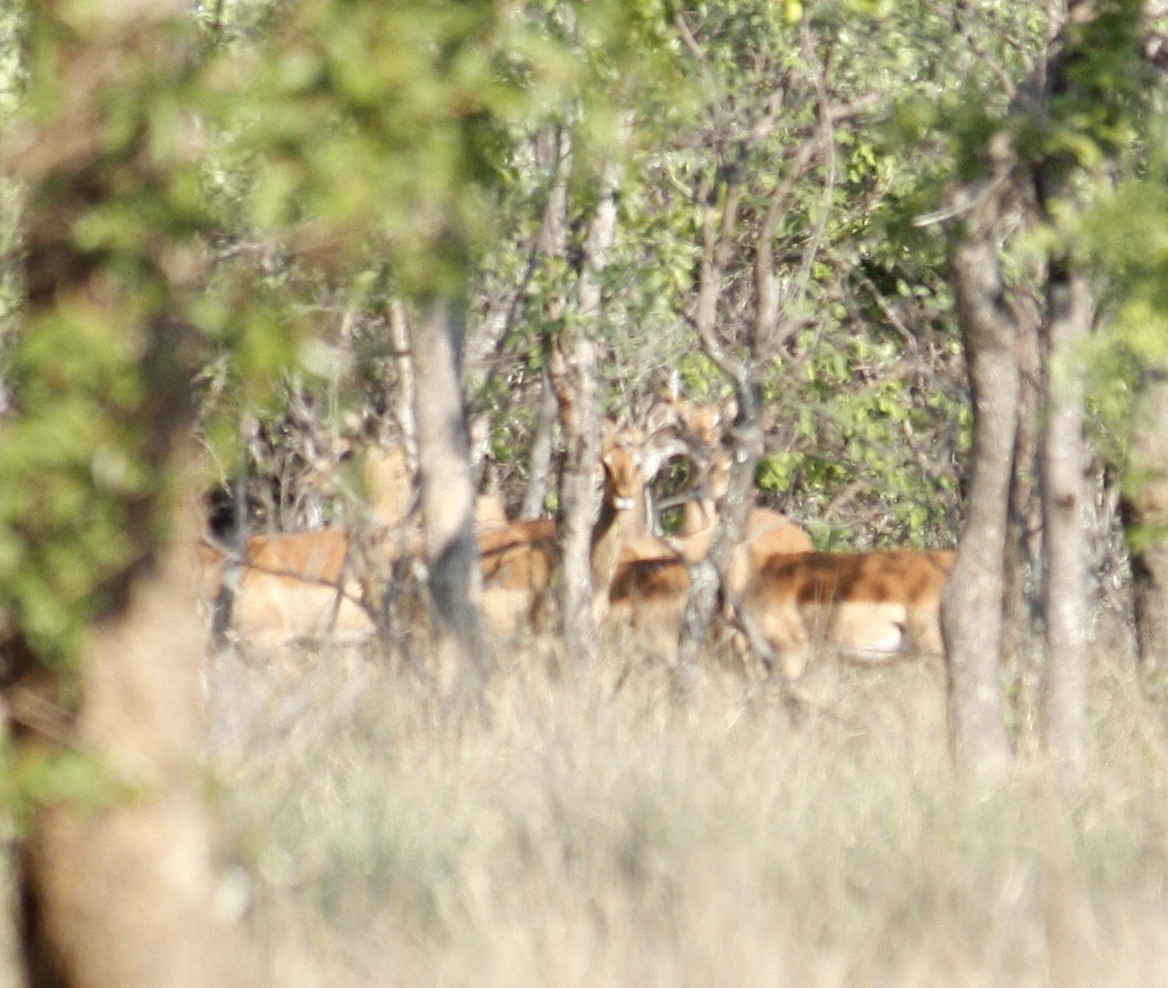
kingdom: Animalia
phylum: Chordata
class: Mammalia
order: Artiodactyla
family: Bovidae
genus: Aepyceros
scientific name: Aepyceros melampus
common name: Impala
